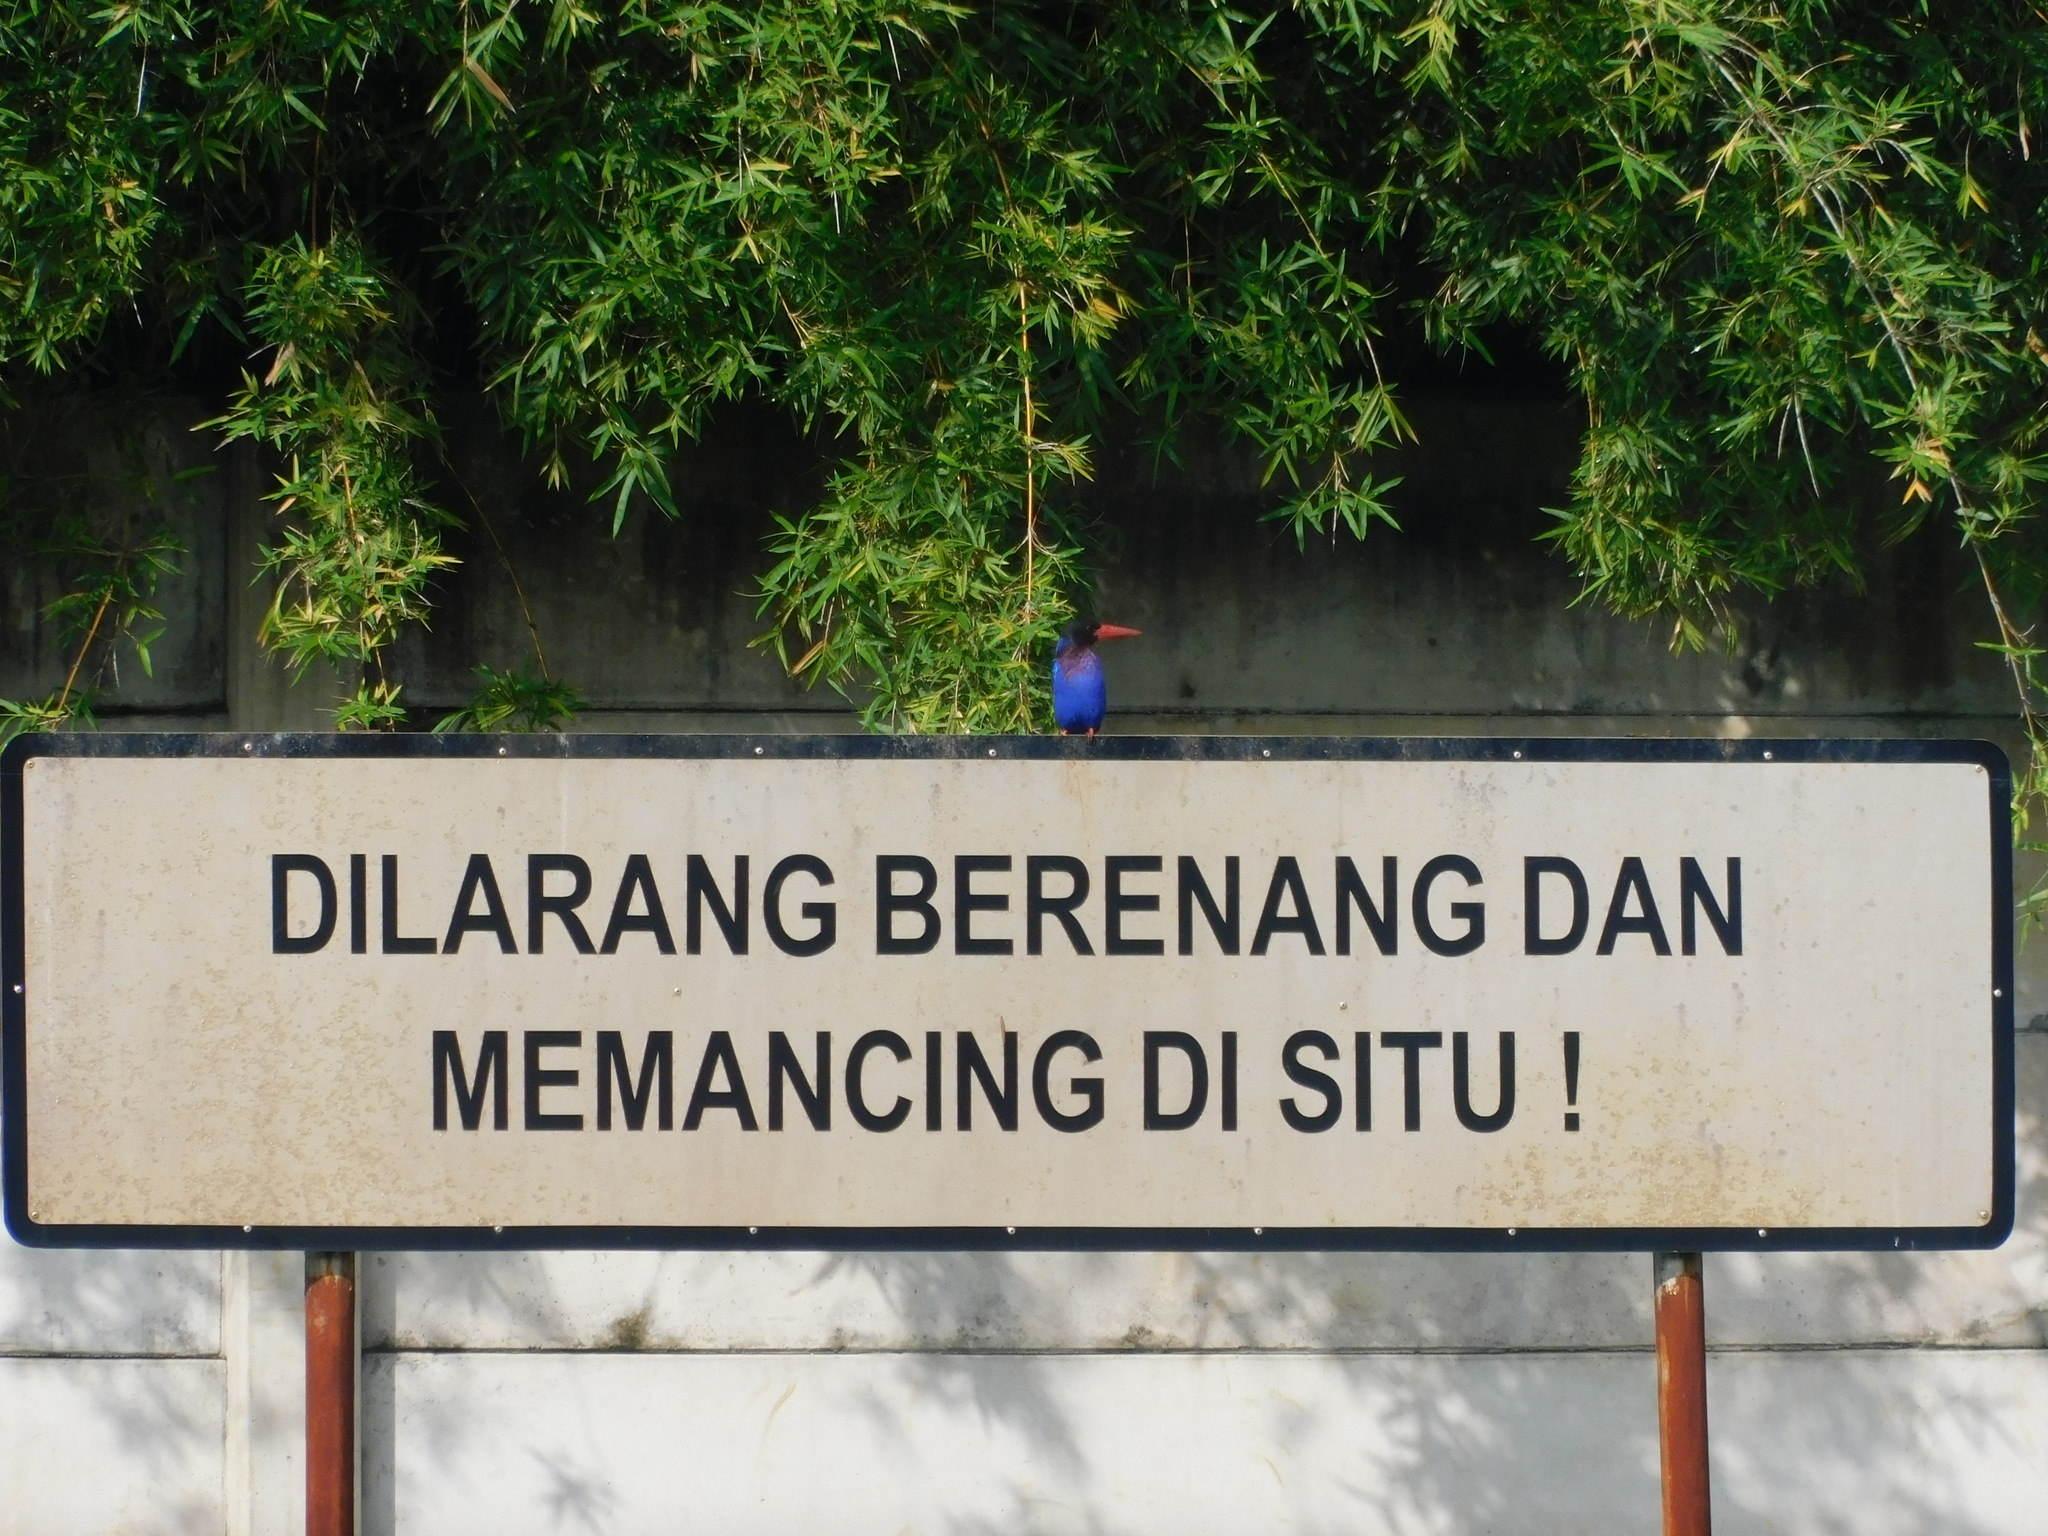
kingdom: Animalia
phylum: Chordata
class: Aves
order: Coraciiformes
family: Alcedinidae
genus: Halcyon
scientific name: Halcyon cyanoventris
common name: Javan kingfisher
